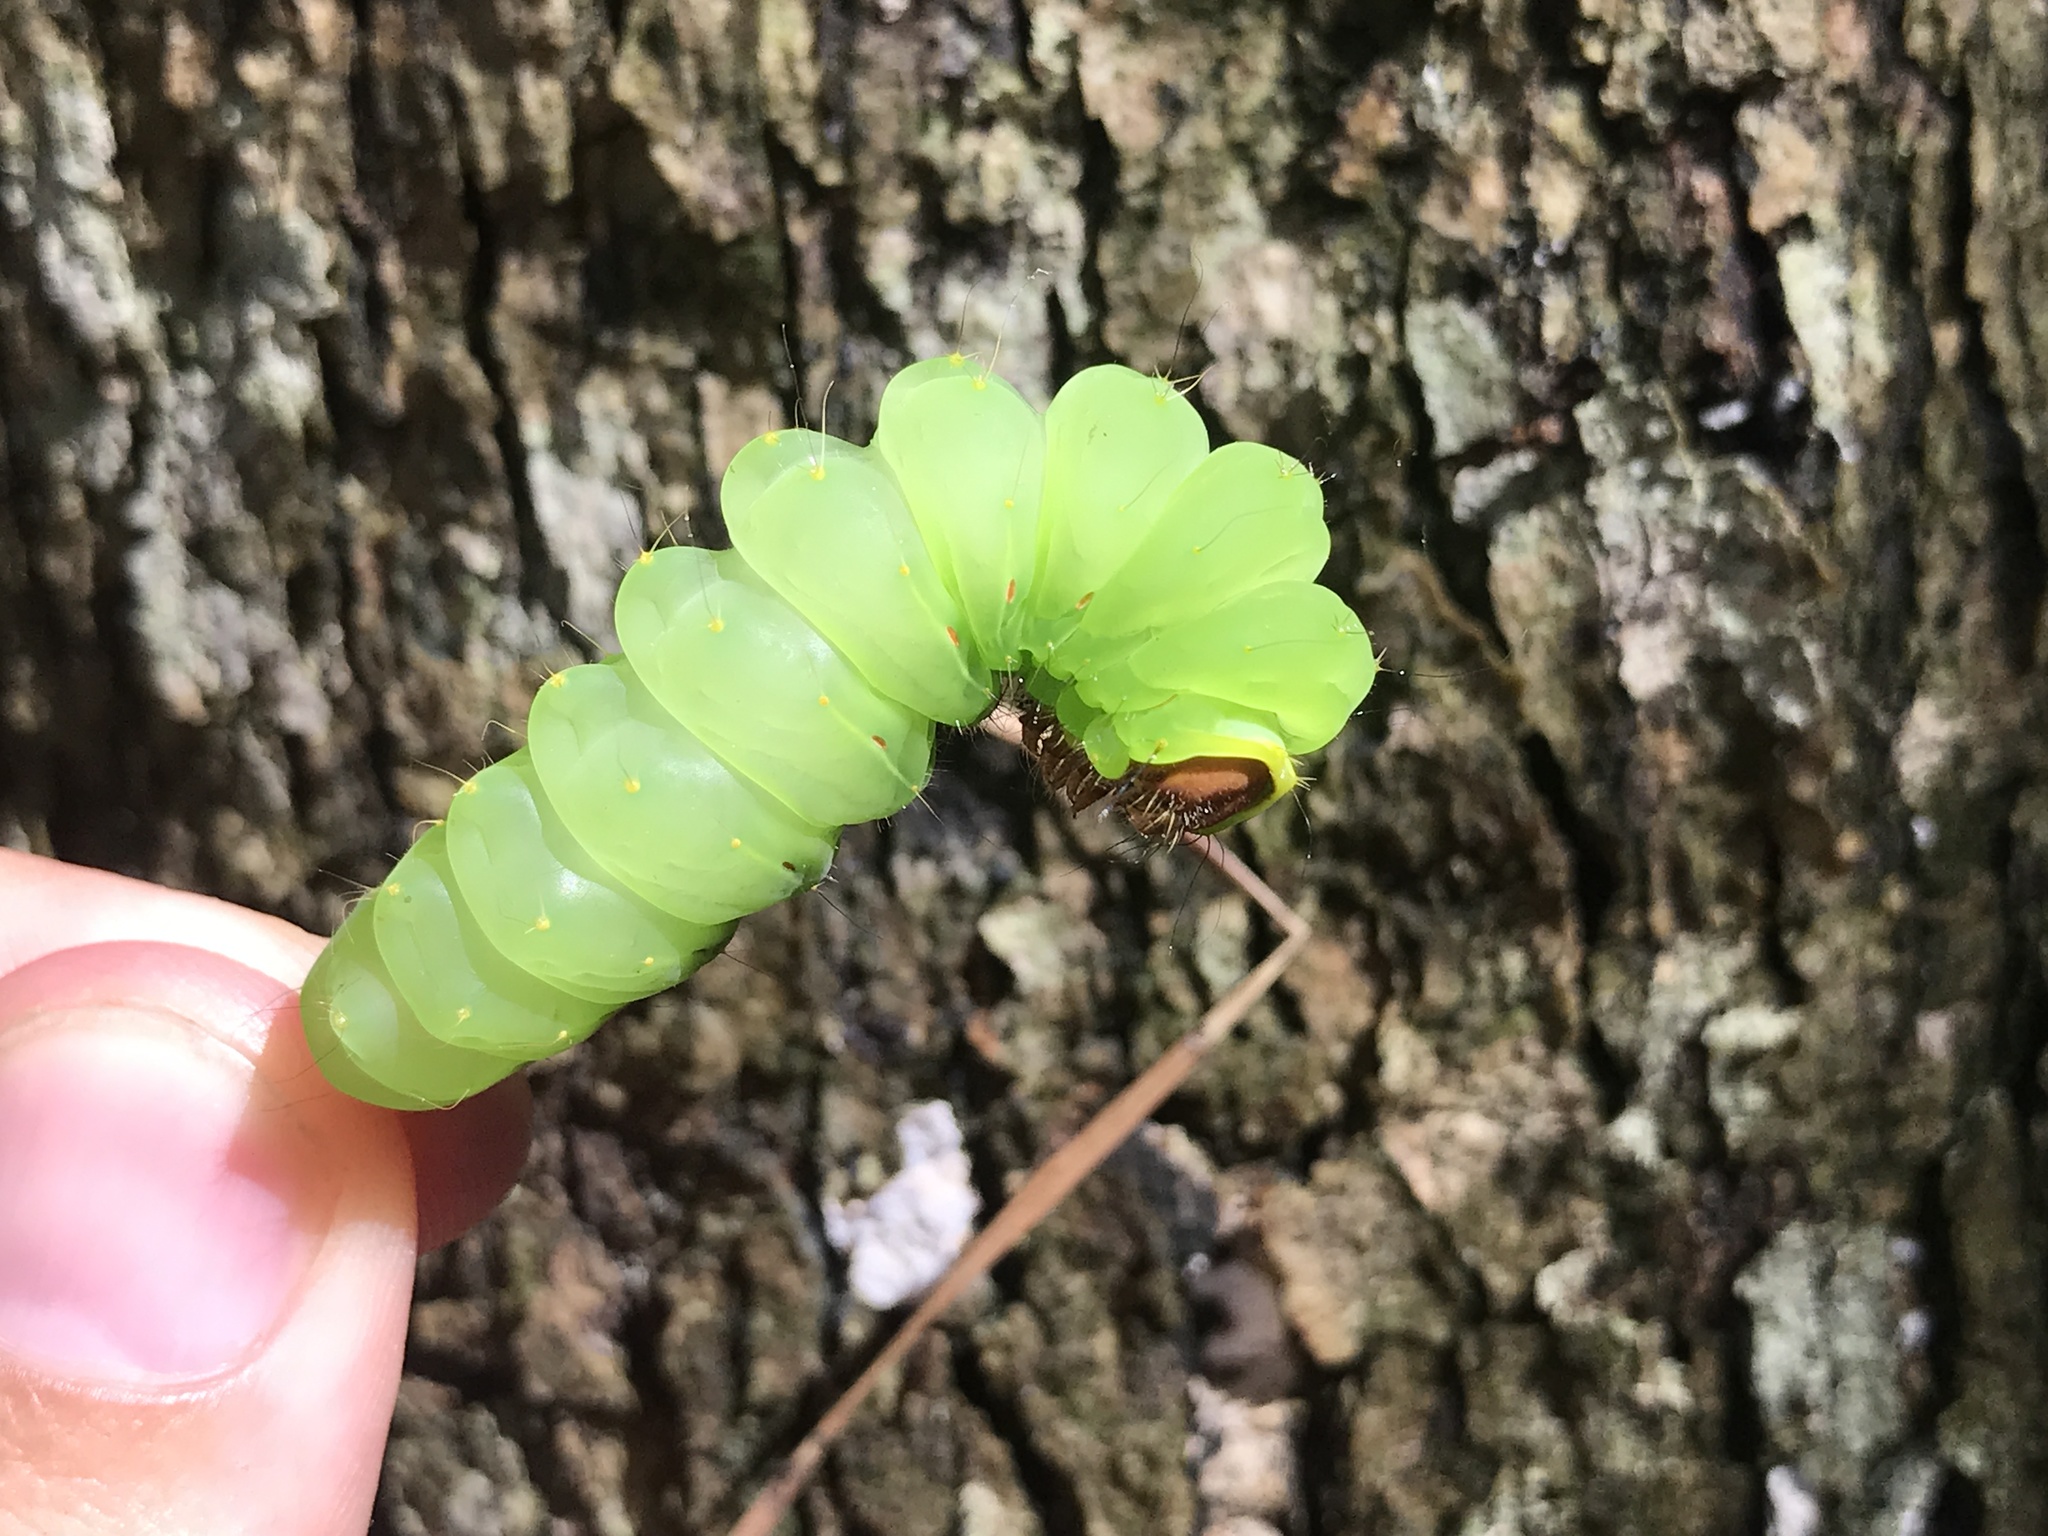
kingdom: Animalia
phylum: Arthropoda
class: Insecta
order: Lepidoptera
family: Saturniidae
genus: Antheraea
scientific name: Antheraea polyphemus
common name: Polyphemus moth
